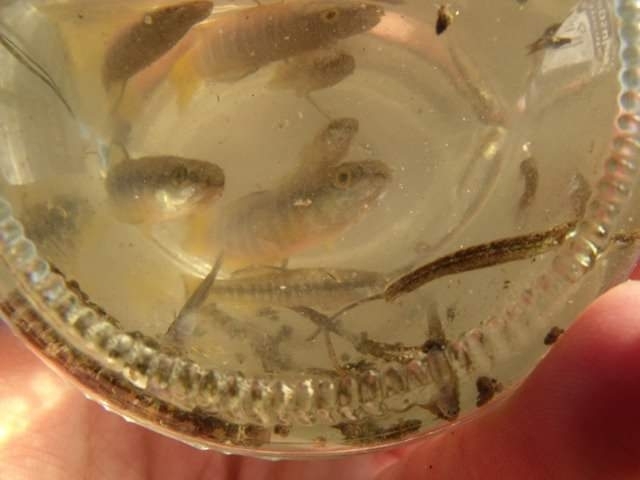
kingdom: Animalia
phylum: Chordata
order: Cyprinodontiformes
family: Cyprinodontidae
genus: Aphanius
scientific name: Aphanius fasciatus
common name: Mediterranean banded killifish
